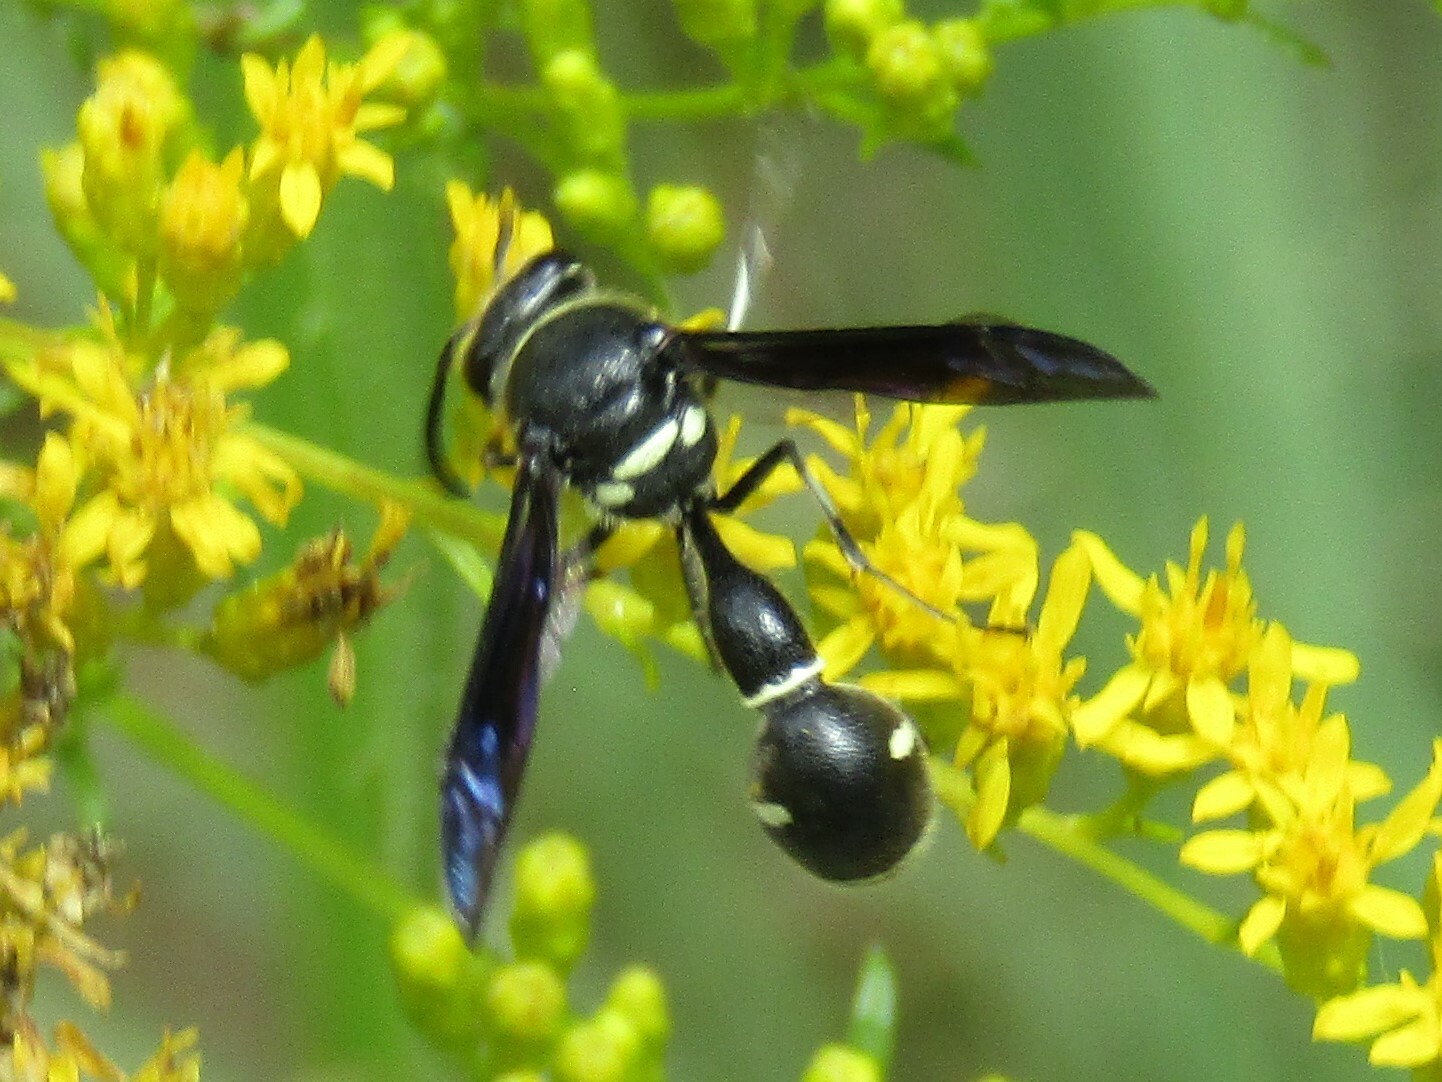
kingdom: Animalia
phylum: Arthropoda
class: Insecta
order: Hymenoptera
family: Vespidae
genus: Eumenes
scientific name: Eumenes fraternus
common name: Fraternal potter wasp
